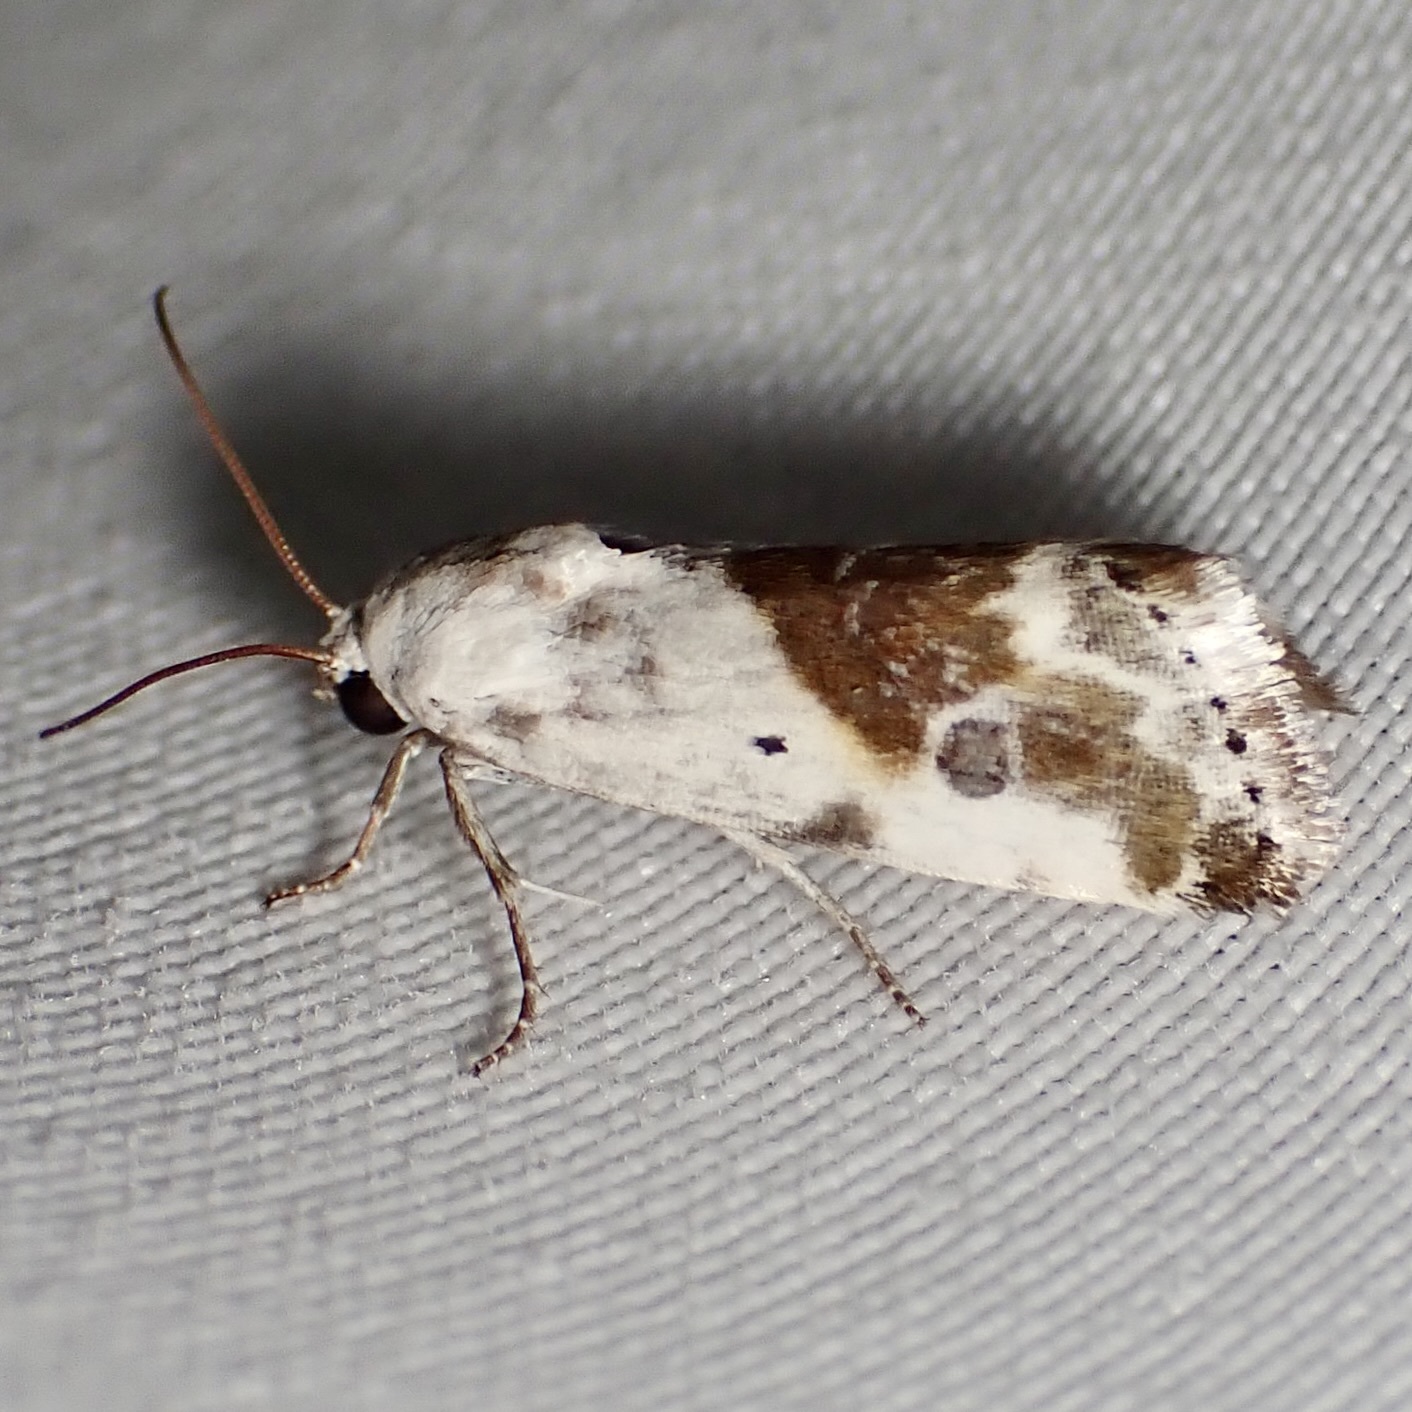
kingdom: Animalia
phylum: Arthropoda
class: Insecta
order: Lepidoptera
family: Noctuidae
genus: Acontia
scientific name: Acontia candefacta
